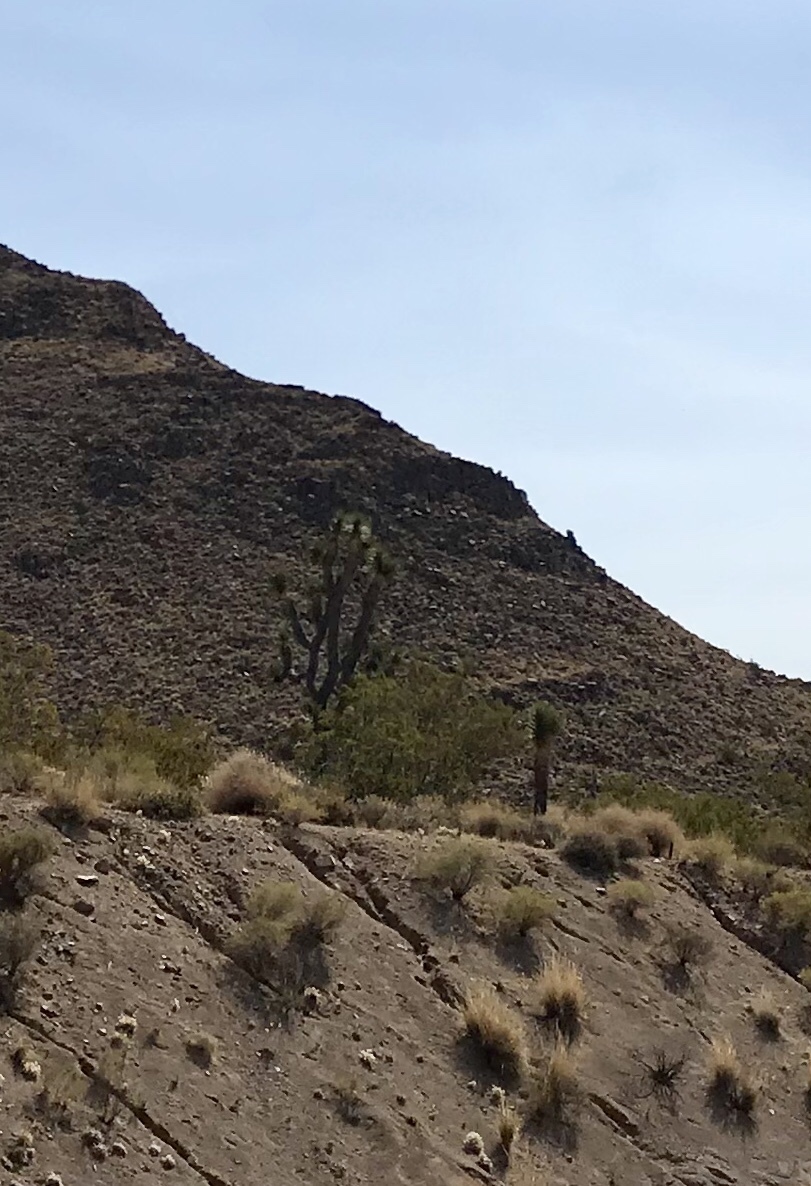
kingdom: Plantae
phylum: Tracheophyta
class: Liliopsida
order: Asparagales
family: Asparagaceae
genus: Yucca
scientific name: Yucca brevifolia
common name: Joshua tree
